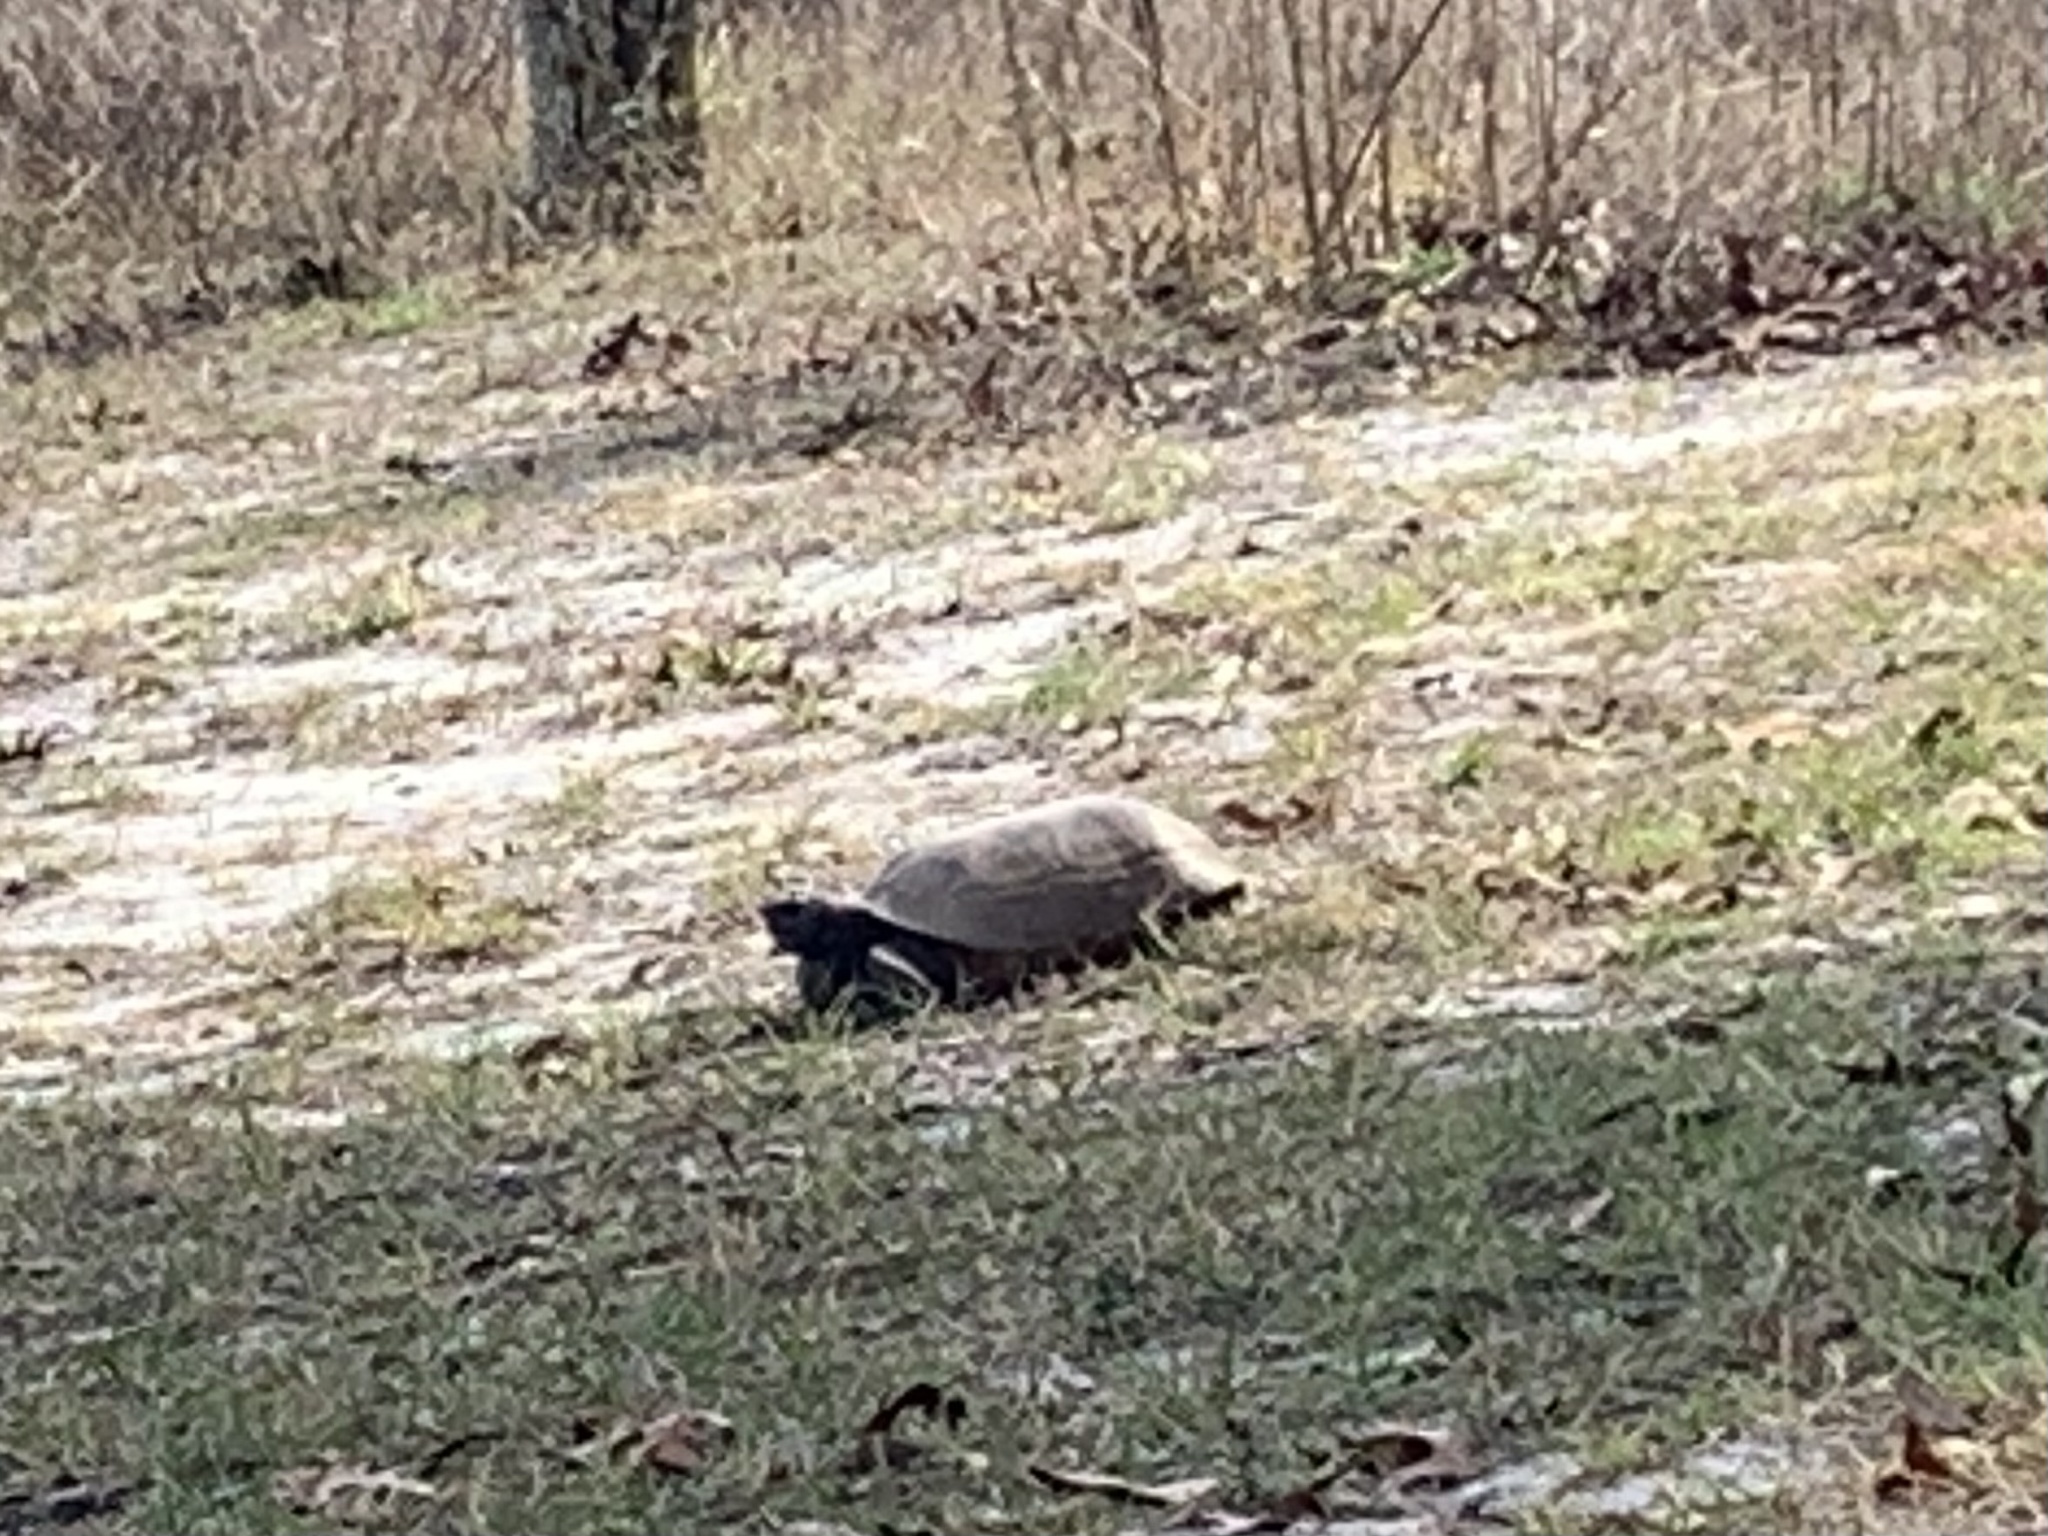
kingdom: Animalia
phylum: Chordata
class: Testudines
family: Testudinidae
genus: Gopherus
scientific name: Gopherus polyphemus
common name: Florida gopher tortoise
